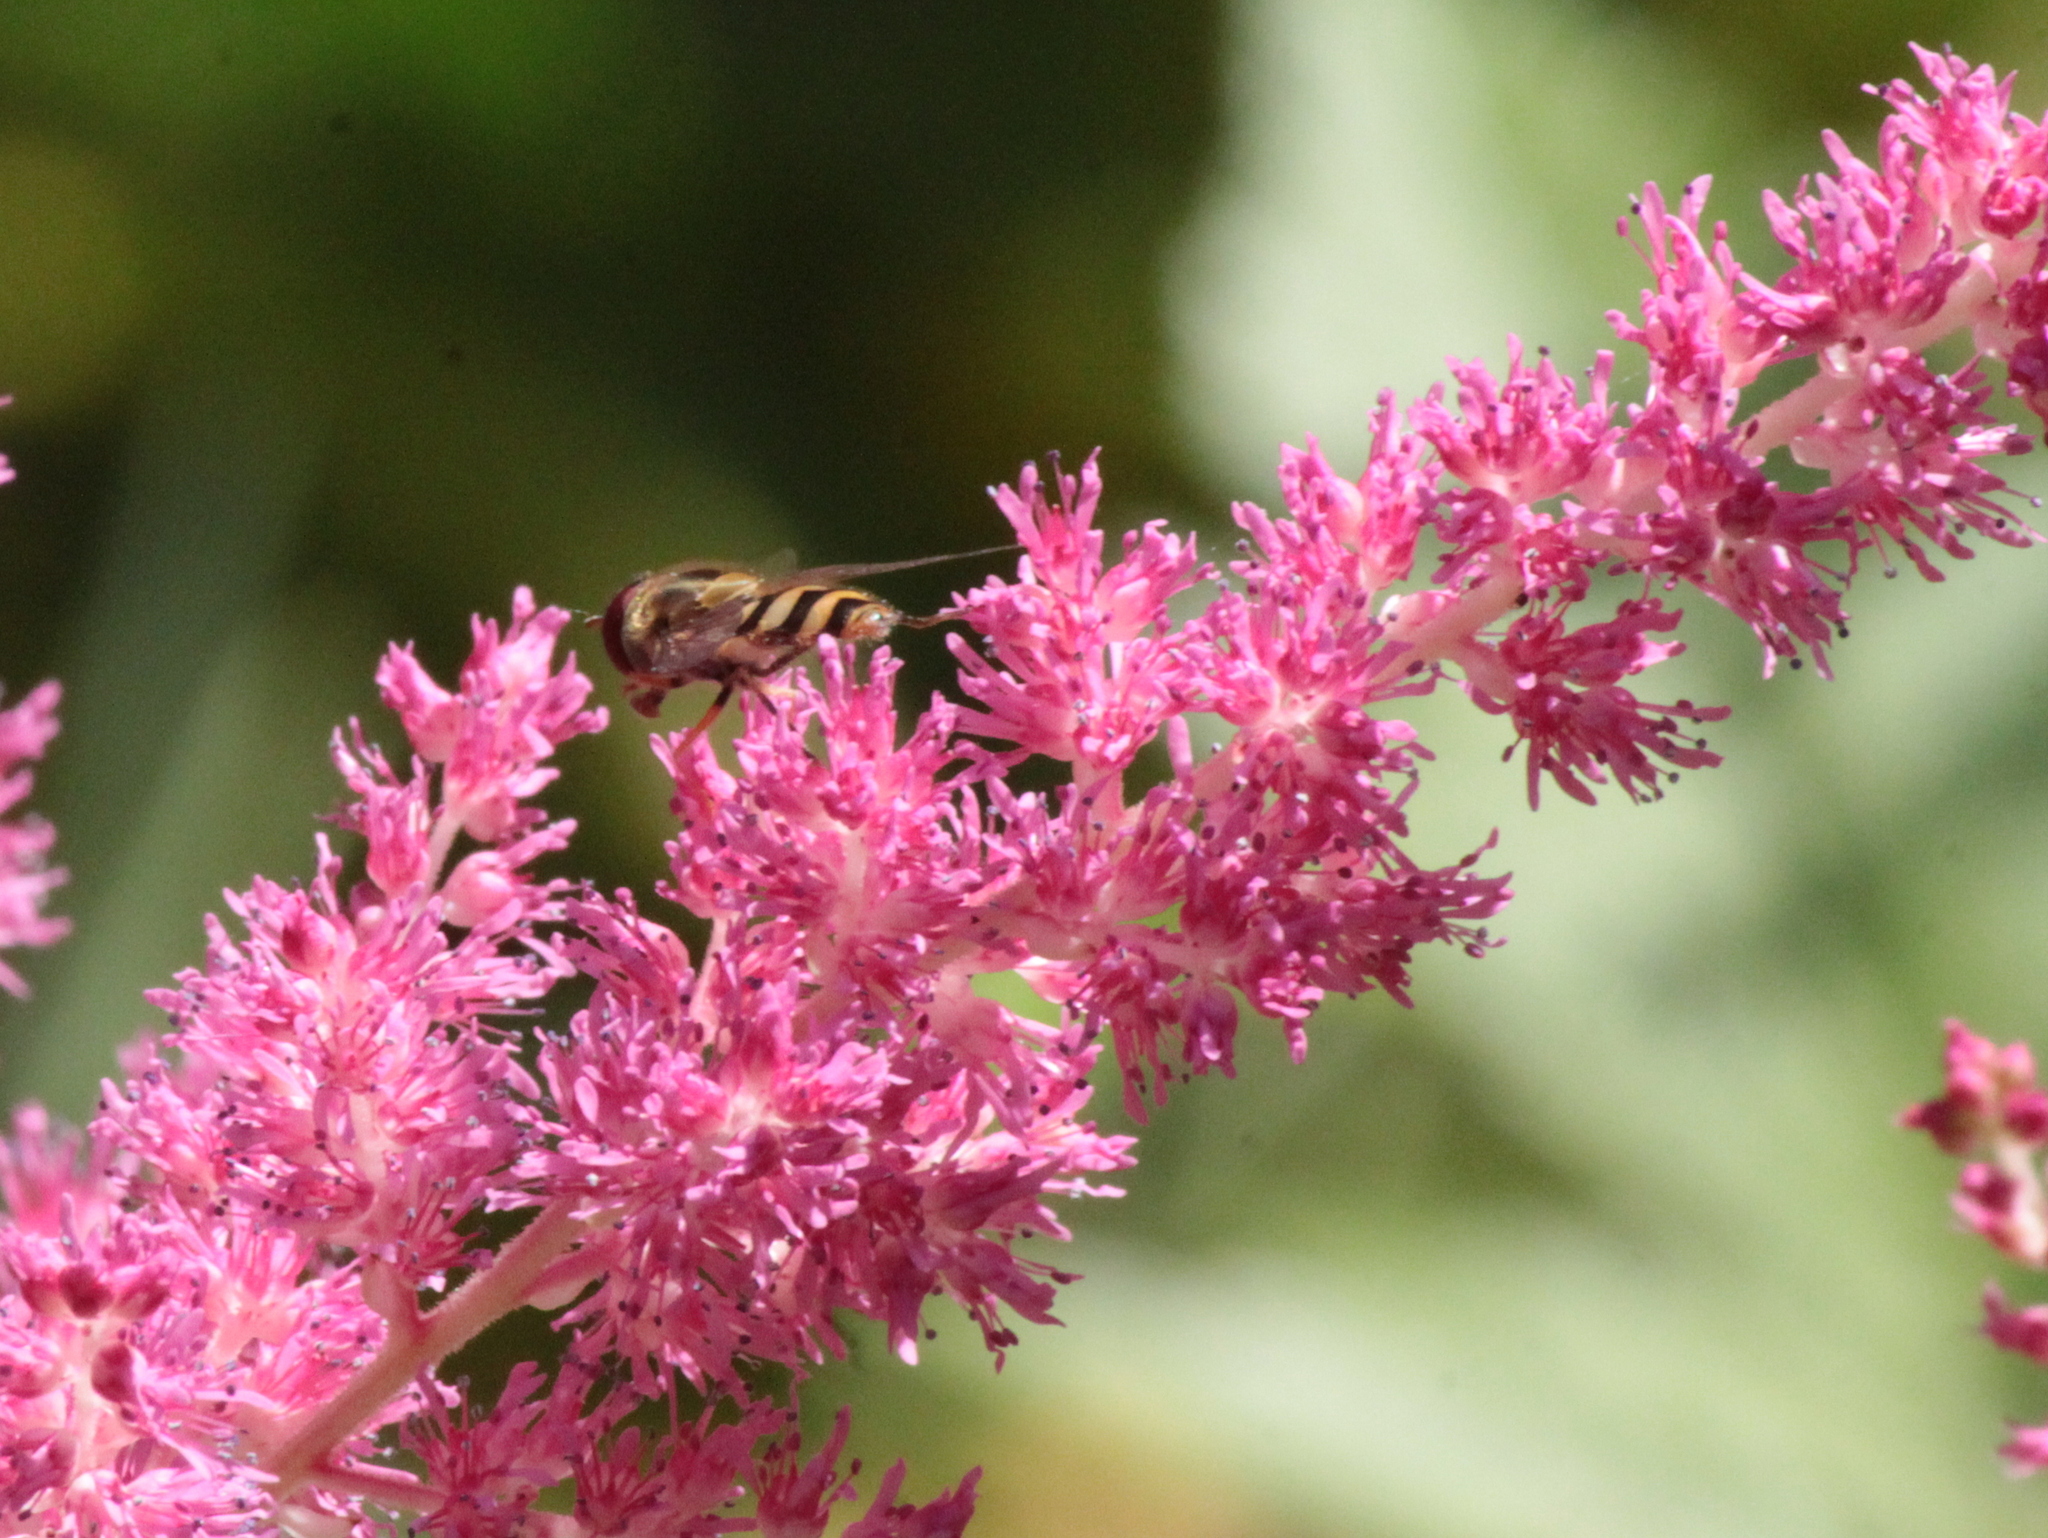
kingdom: Animalia
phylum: Arthropoda
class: Insecta
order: Diptera
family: Syrphidae
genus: Syrphus
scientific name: Syrphus
